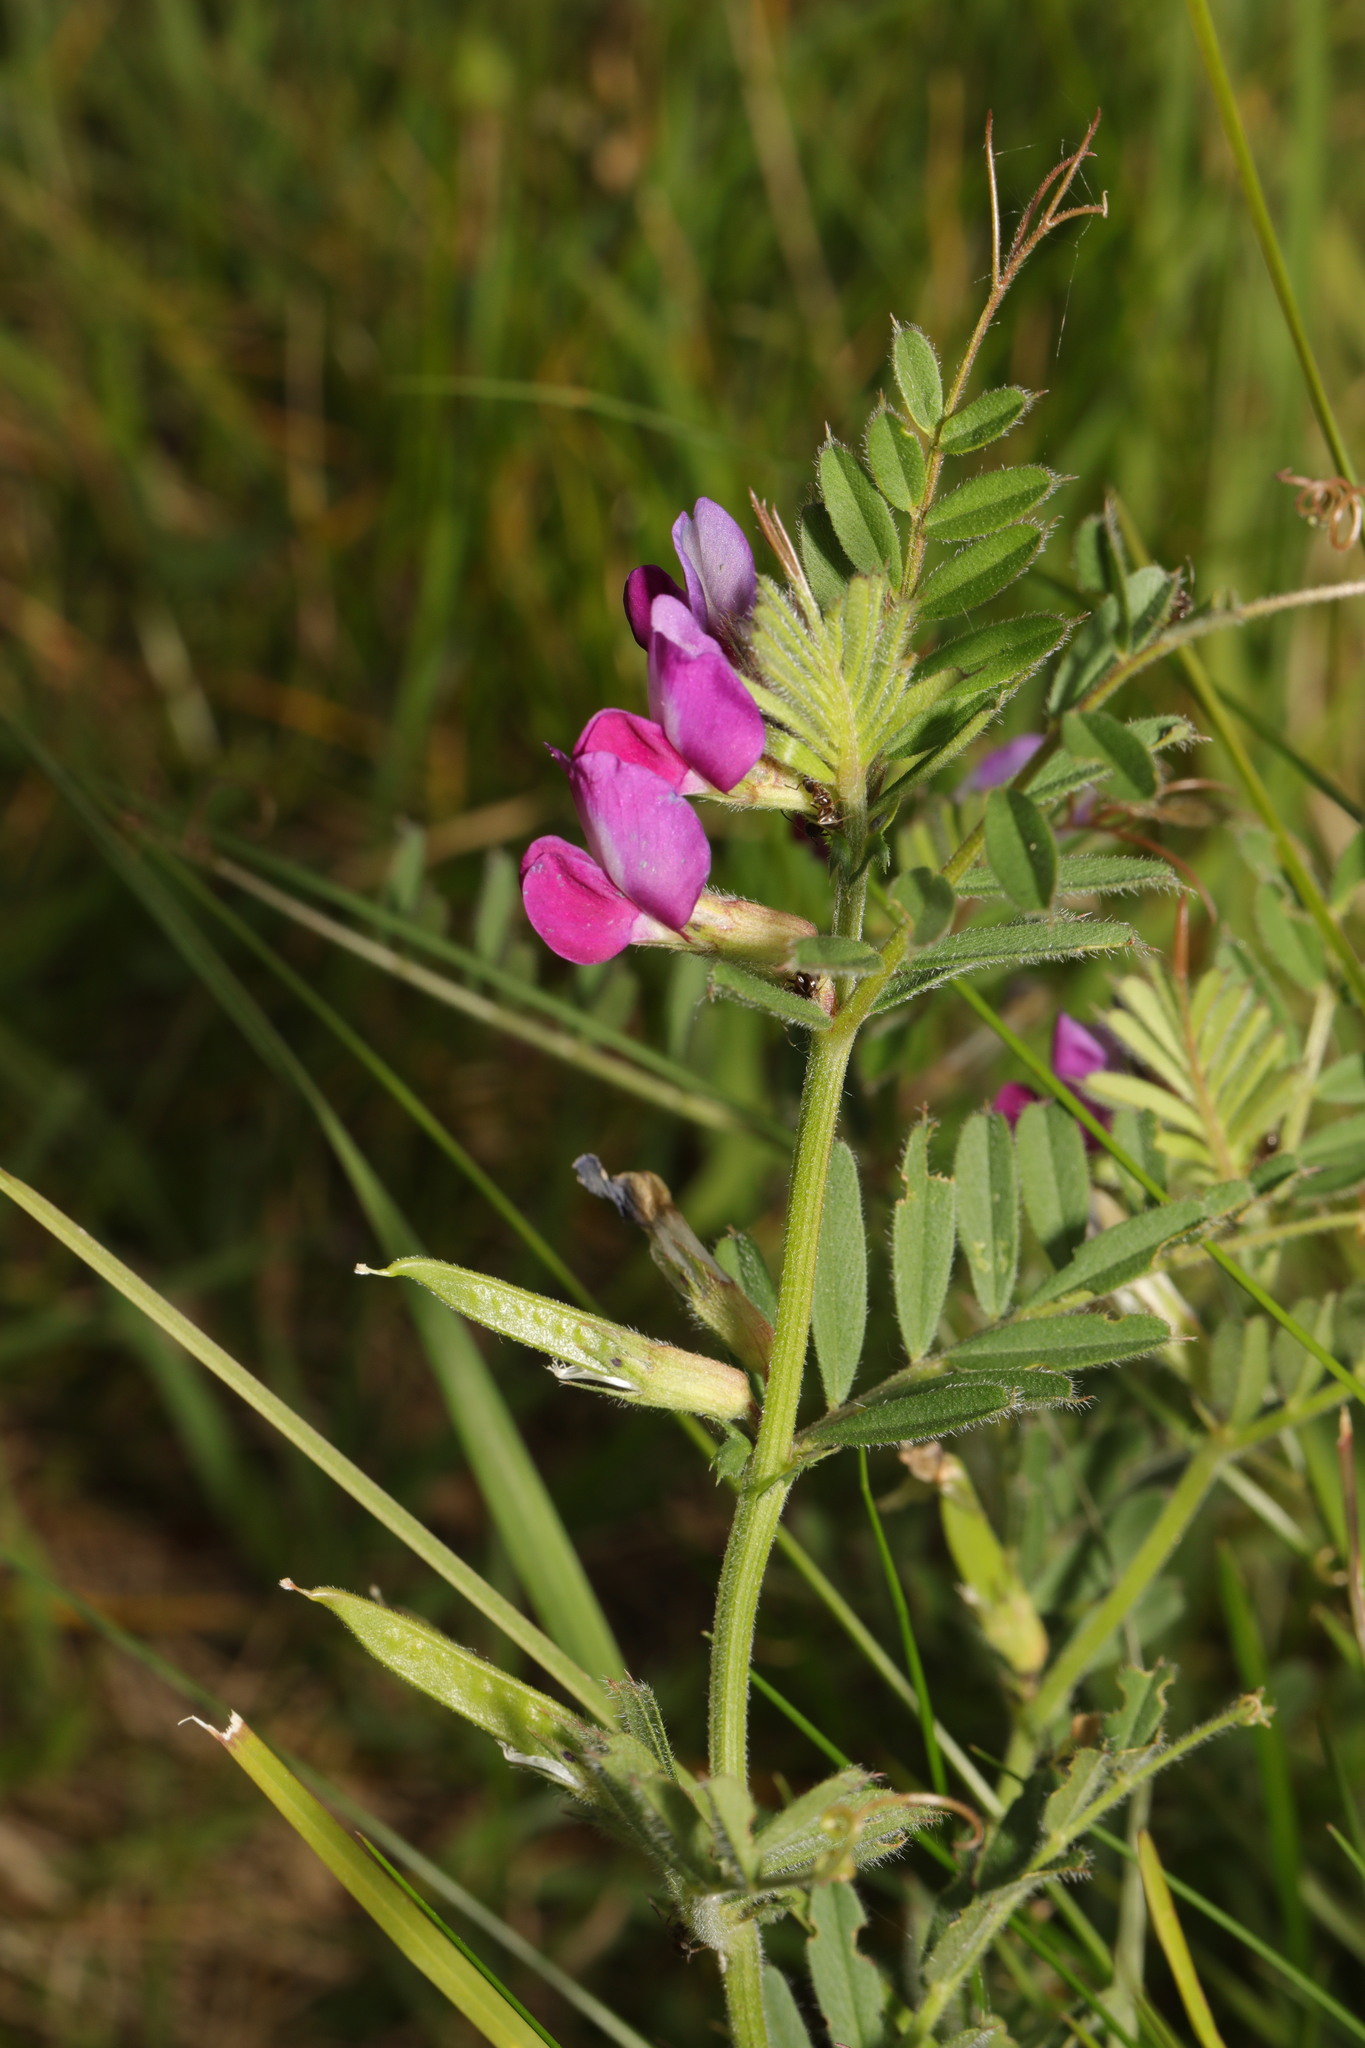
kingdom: Plantae
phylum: Tracheophyta
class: Magnoliopsida
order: Fabales
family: Fabaceae
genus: Vicia
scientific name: Vicia sativa
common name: Garden vetch
